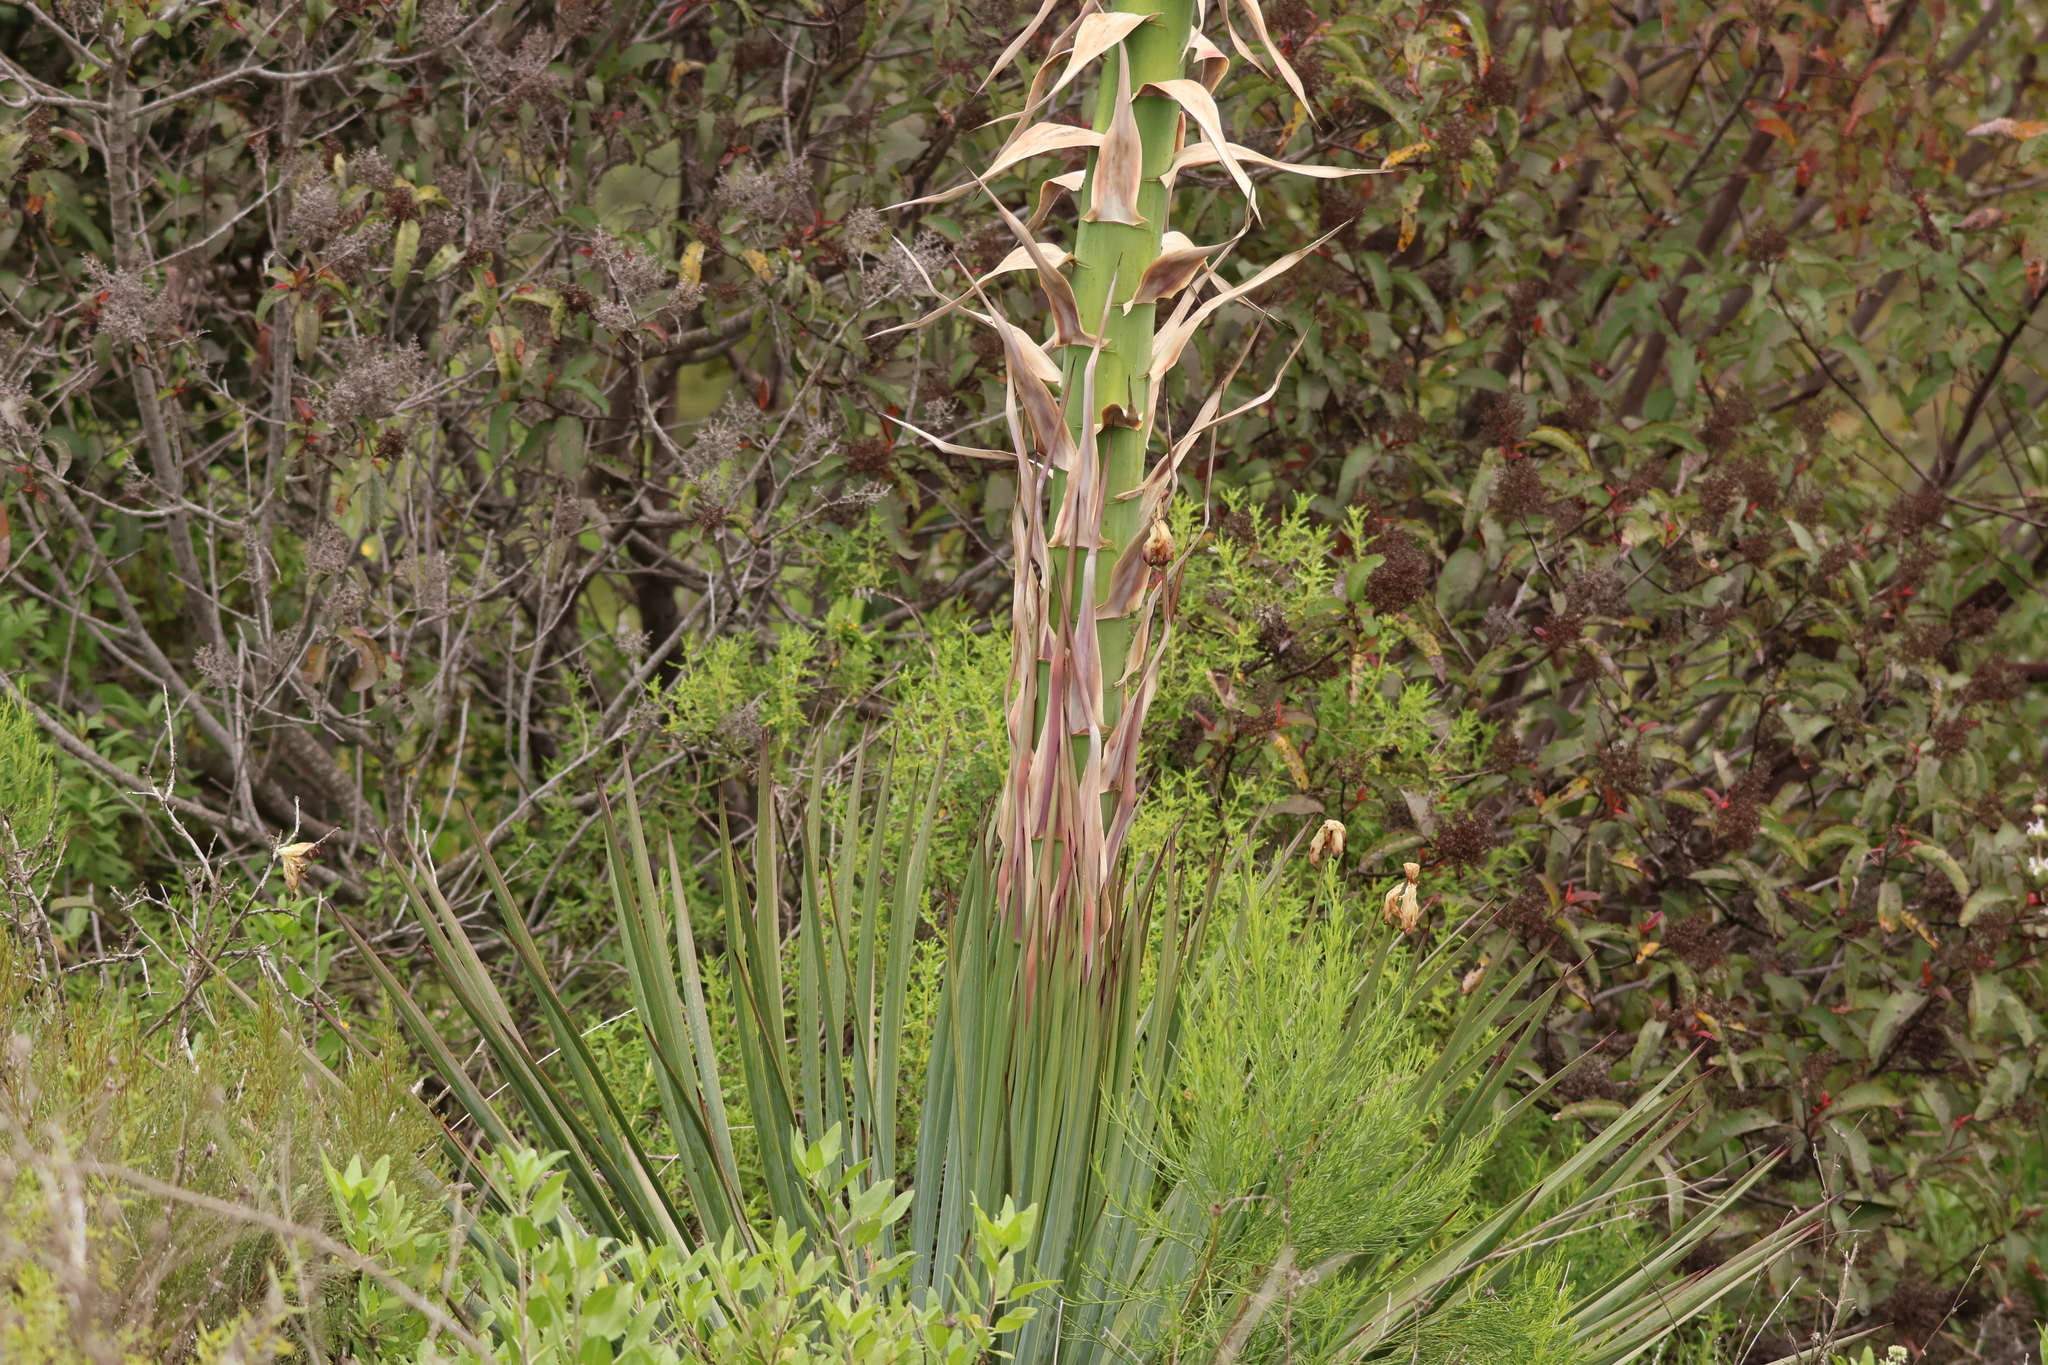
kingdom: Plantae
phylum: Tracheophyta
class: Liliopsida
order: Asparagales
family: Asparagaceae
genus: Hesperoyucca
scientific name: Hesperoyucca whipplei
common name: Our lord's-candle
